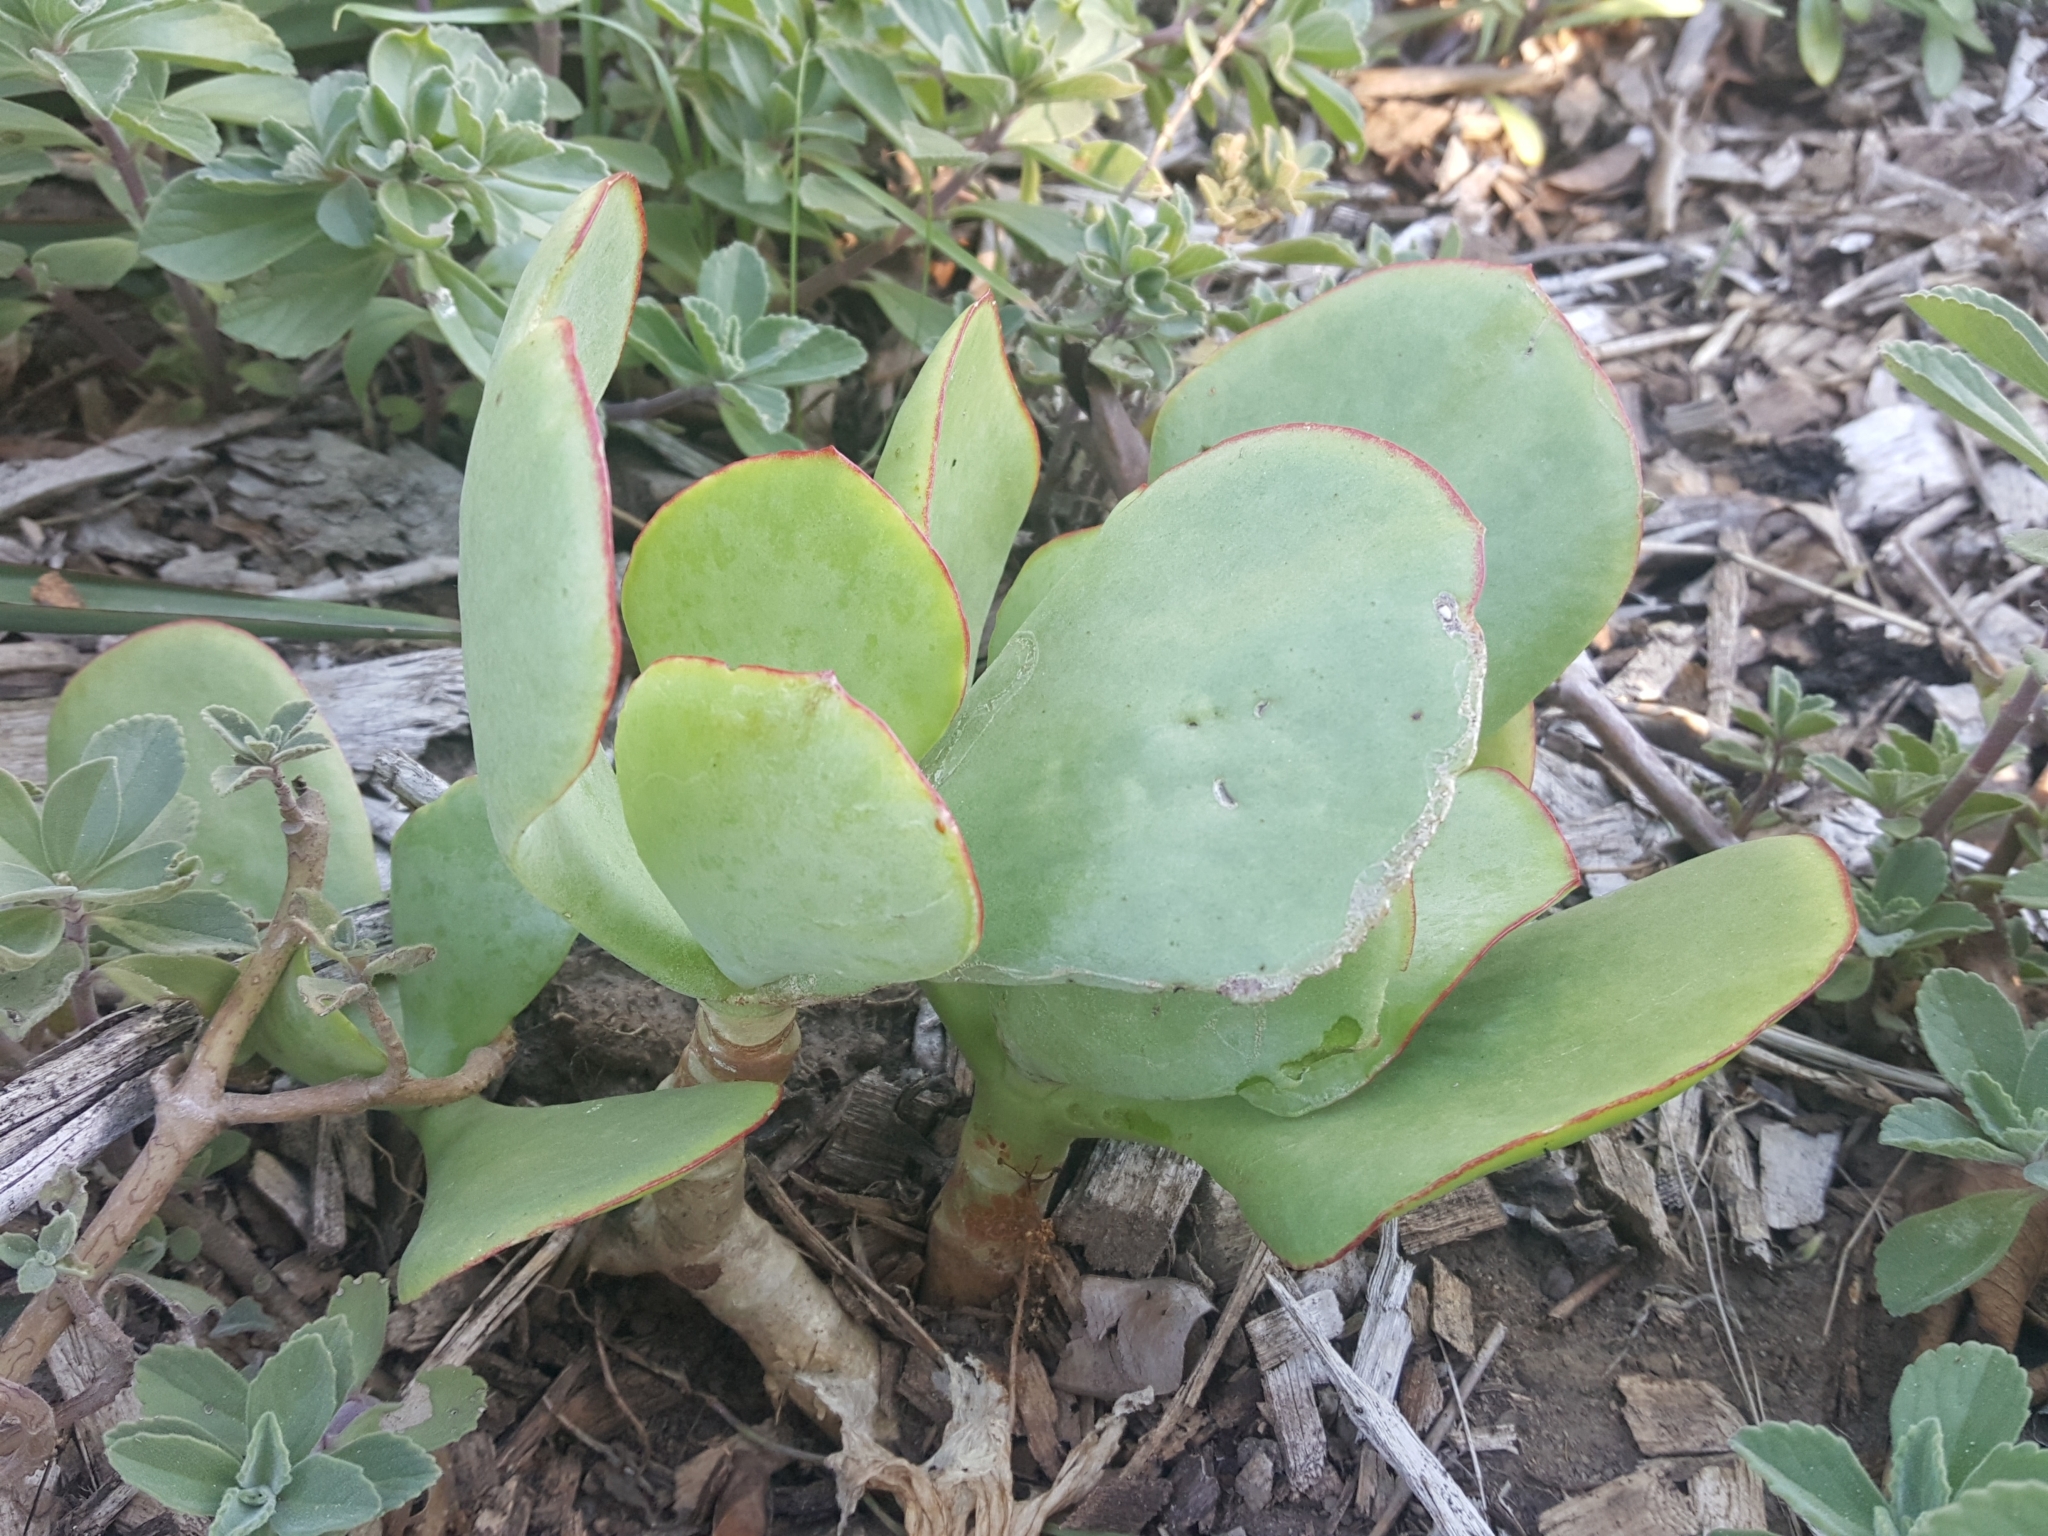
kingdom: Plantae
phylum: Tracheophyta
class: Magnoliopsida
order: Saxifragales
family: Crassulaceae
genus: Cotyledon
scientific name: Cotyledon orbiculata
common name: Pig's ear
